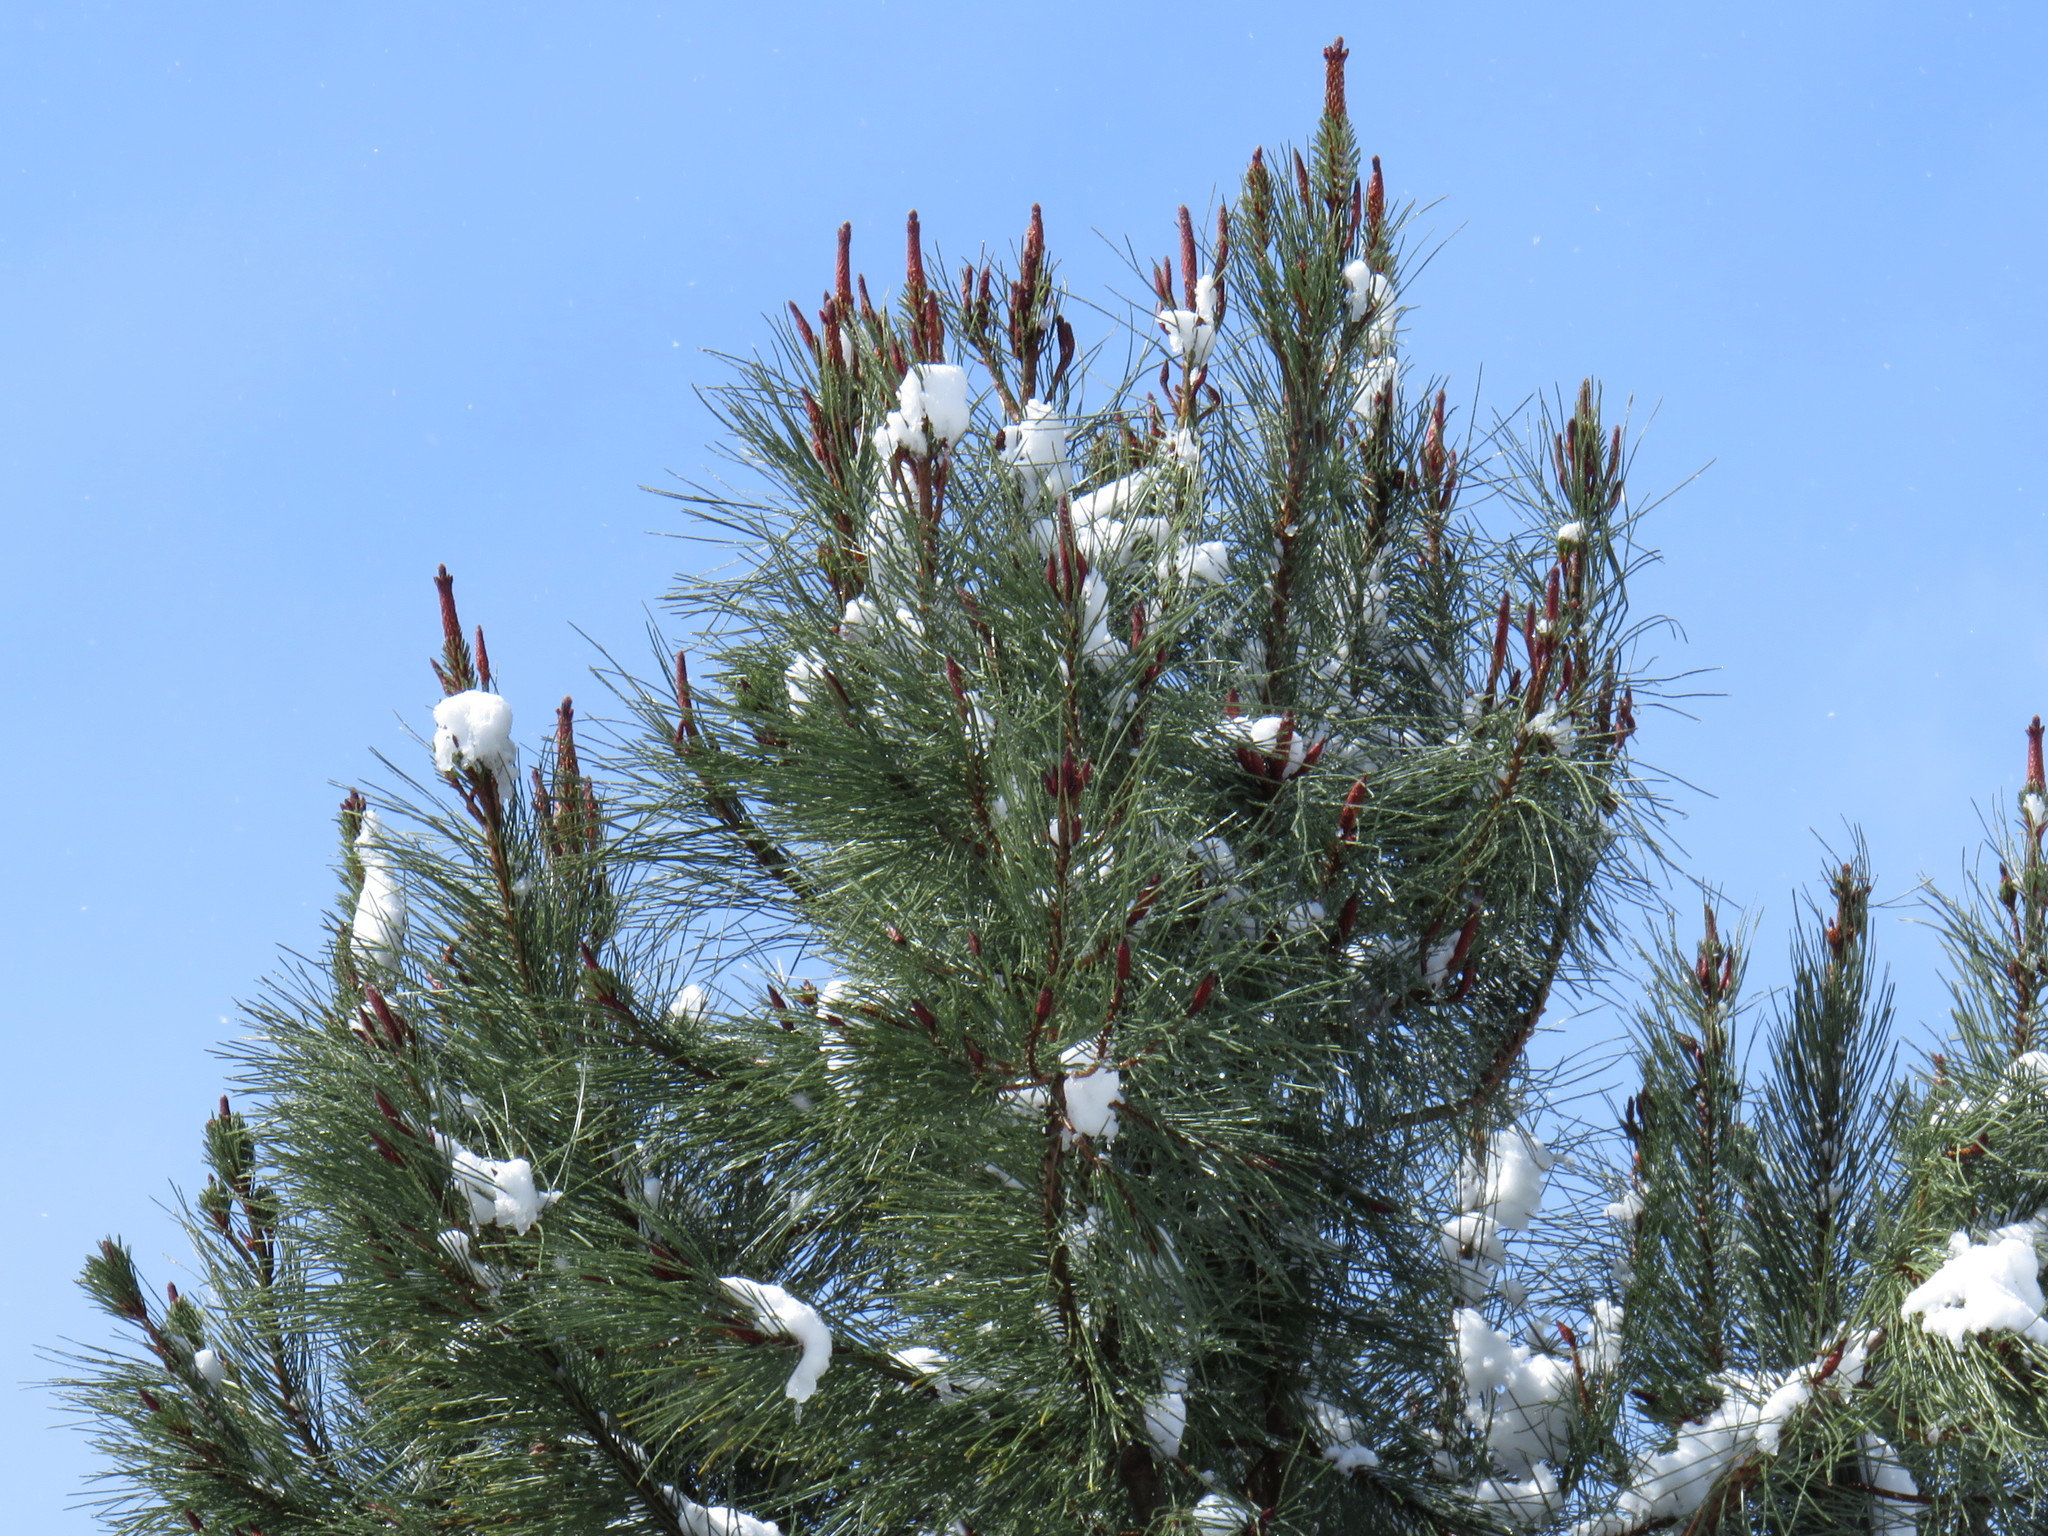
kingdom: Plantae
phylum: Tracheophyta
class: Pinopsida
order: Pinales
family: Pinaceae
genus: Pinus
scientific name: Pinus pinaster
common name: Maritime pine
